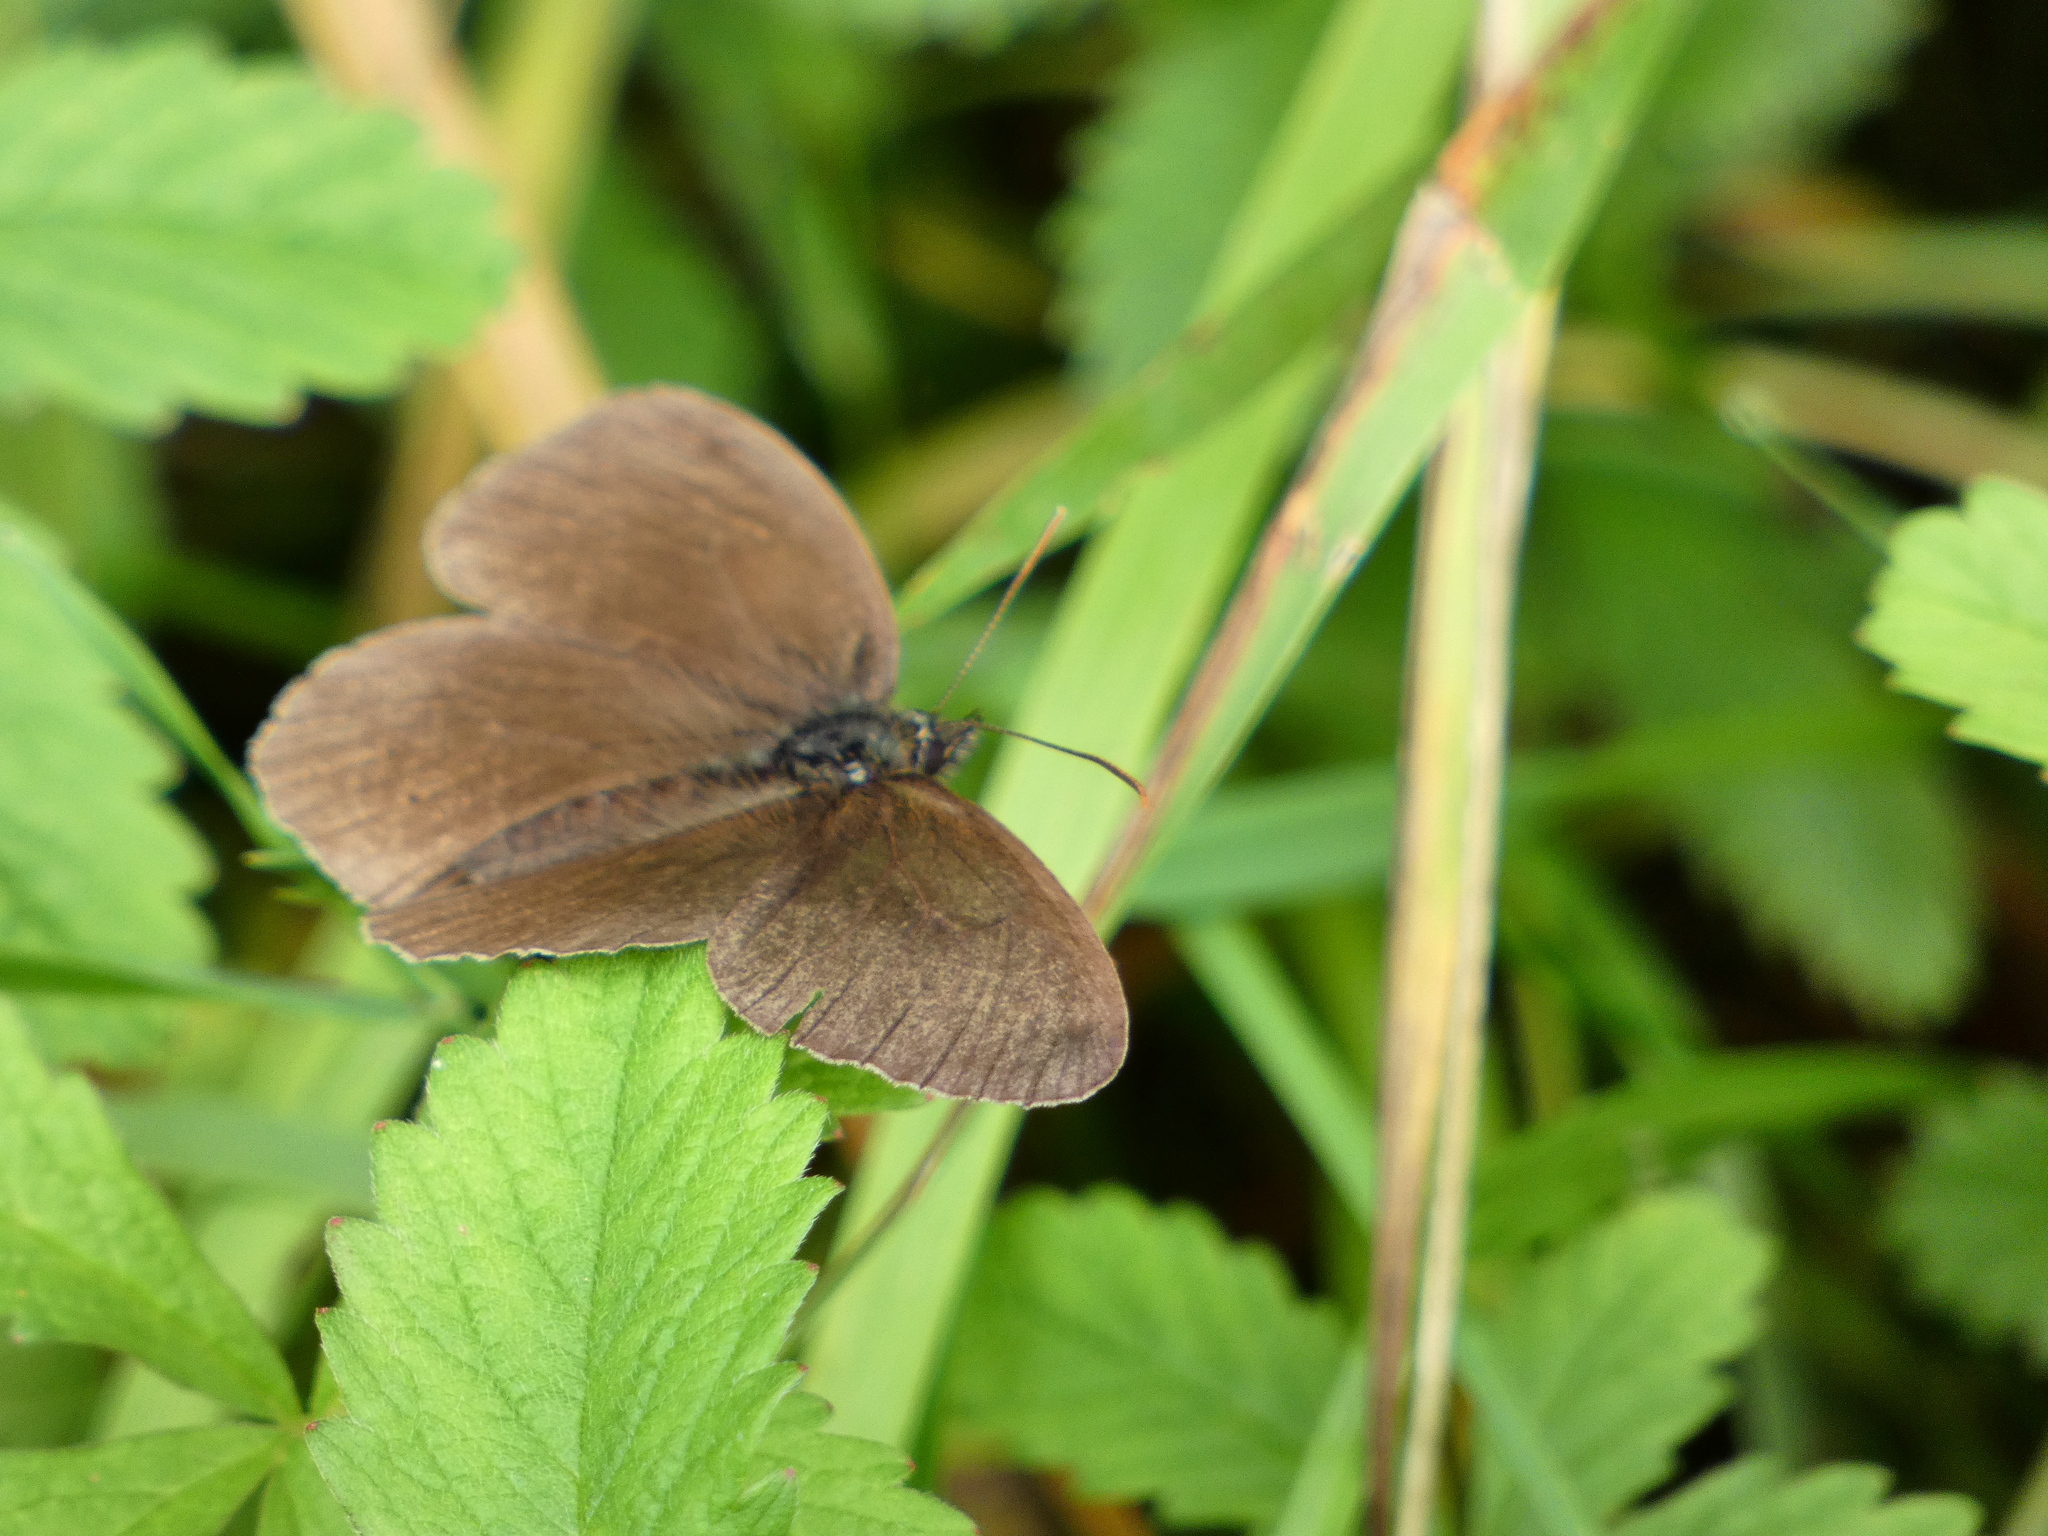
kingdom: Animalia
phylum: Arthropoda
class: Insecta
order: Lepidoptera
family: Nymphalidae
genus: Aphantopus
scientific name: Aphantopus hyperantus
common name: Ringlet
